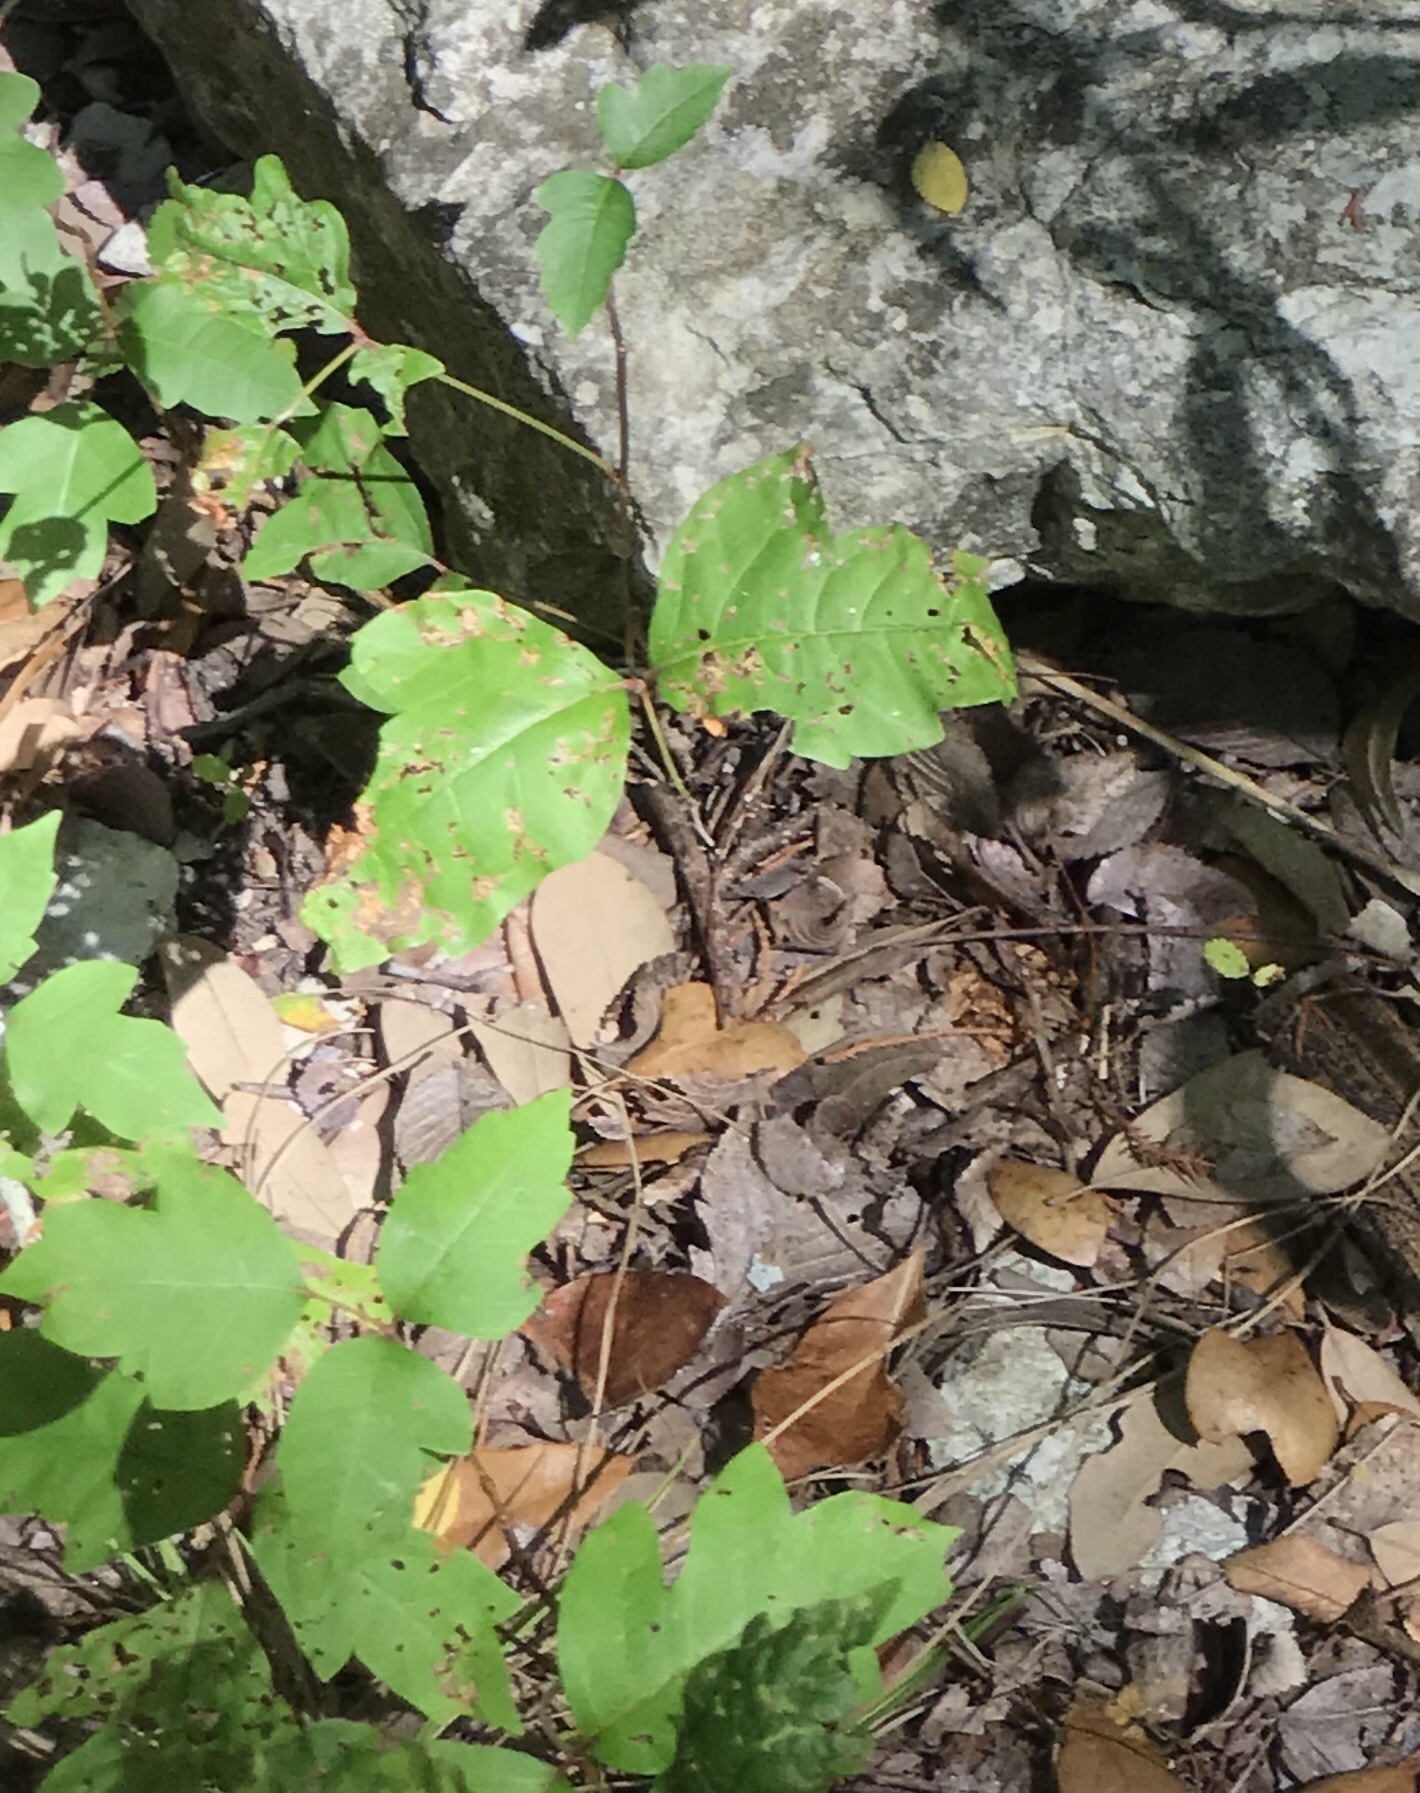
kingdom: Plantae
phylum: Tracheophyta
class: Magnoliopsida
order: Sapindales
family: Anacardiaceae
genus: Toxicodendron
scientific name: Toxicodendron radicans
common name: Poison ivy
